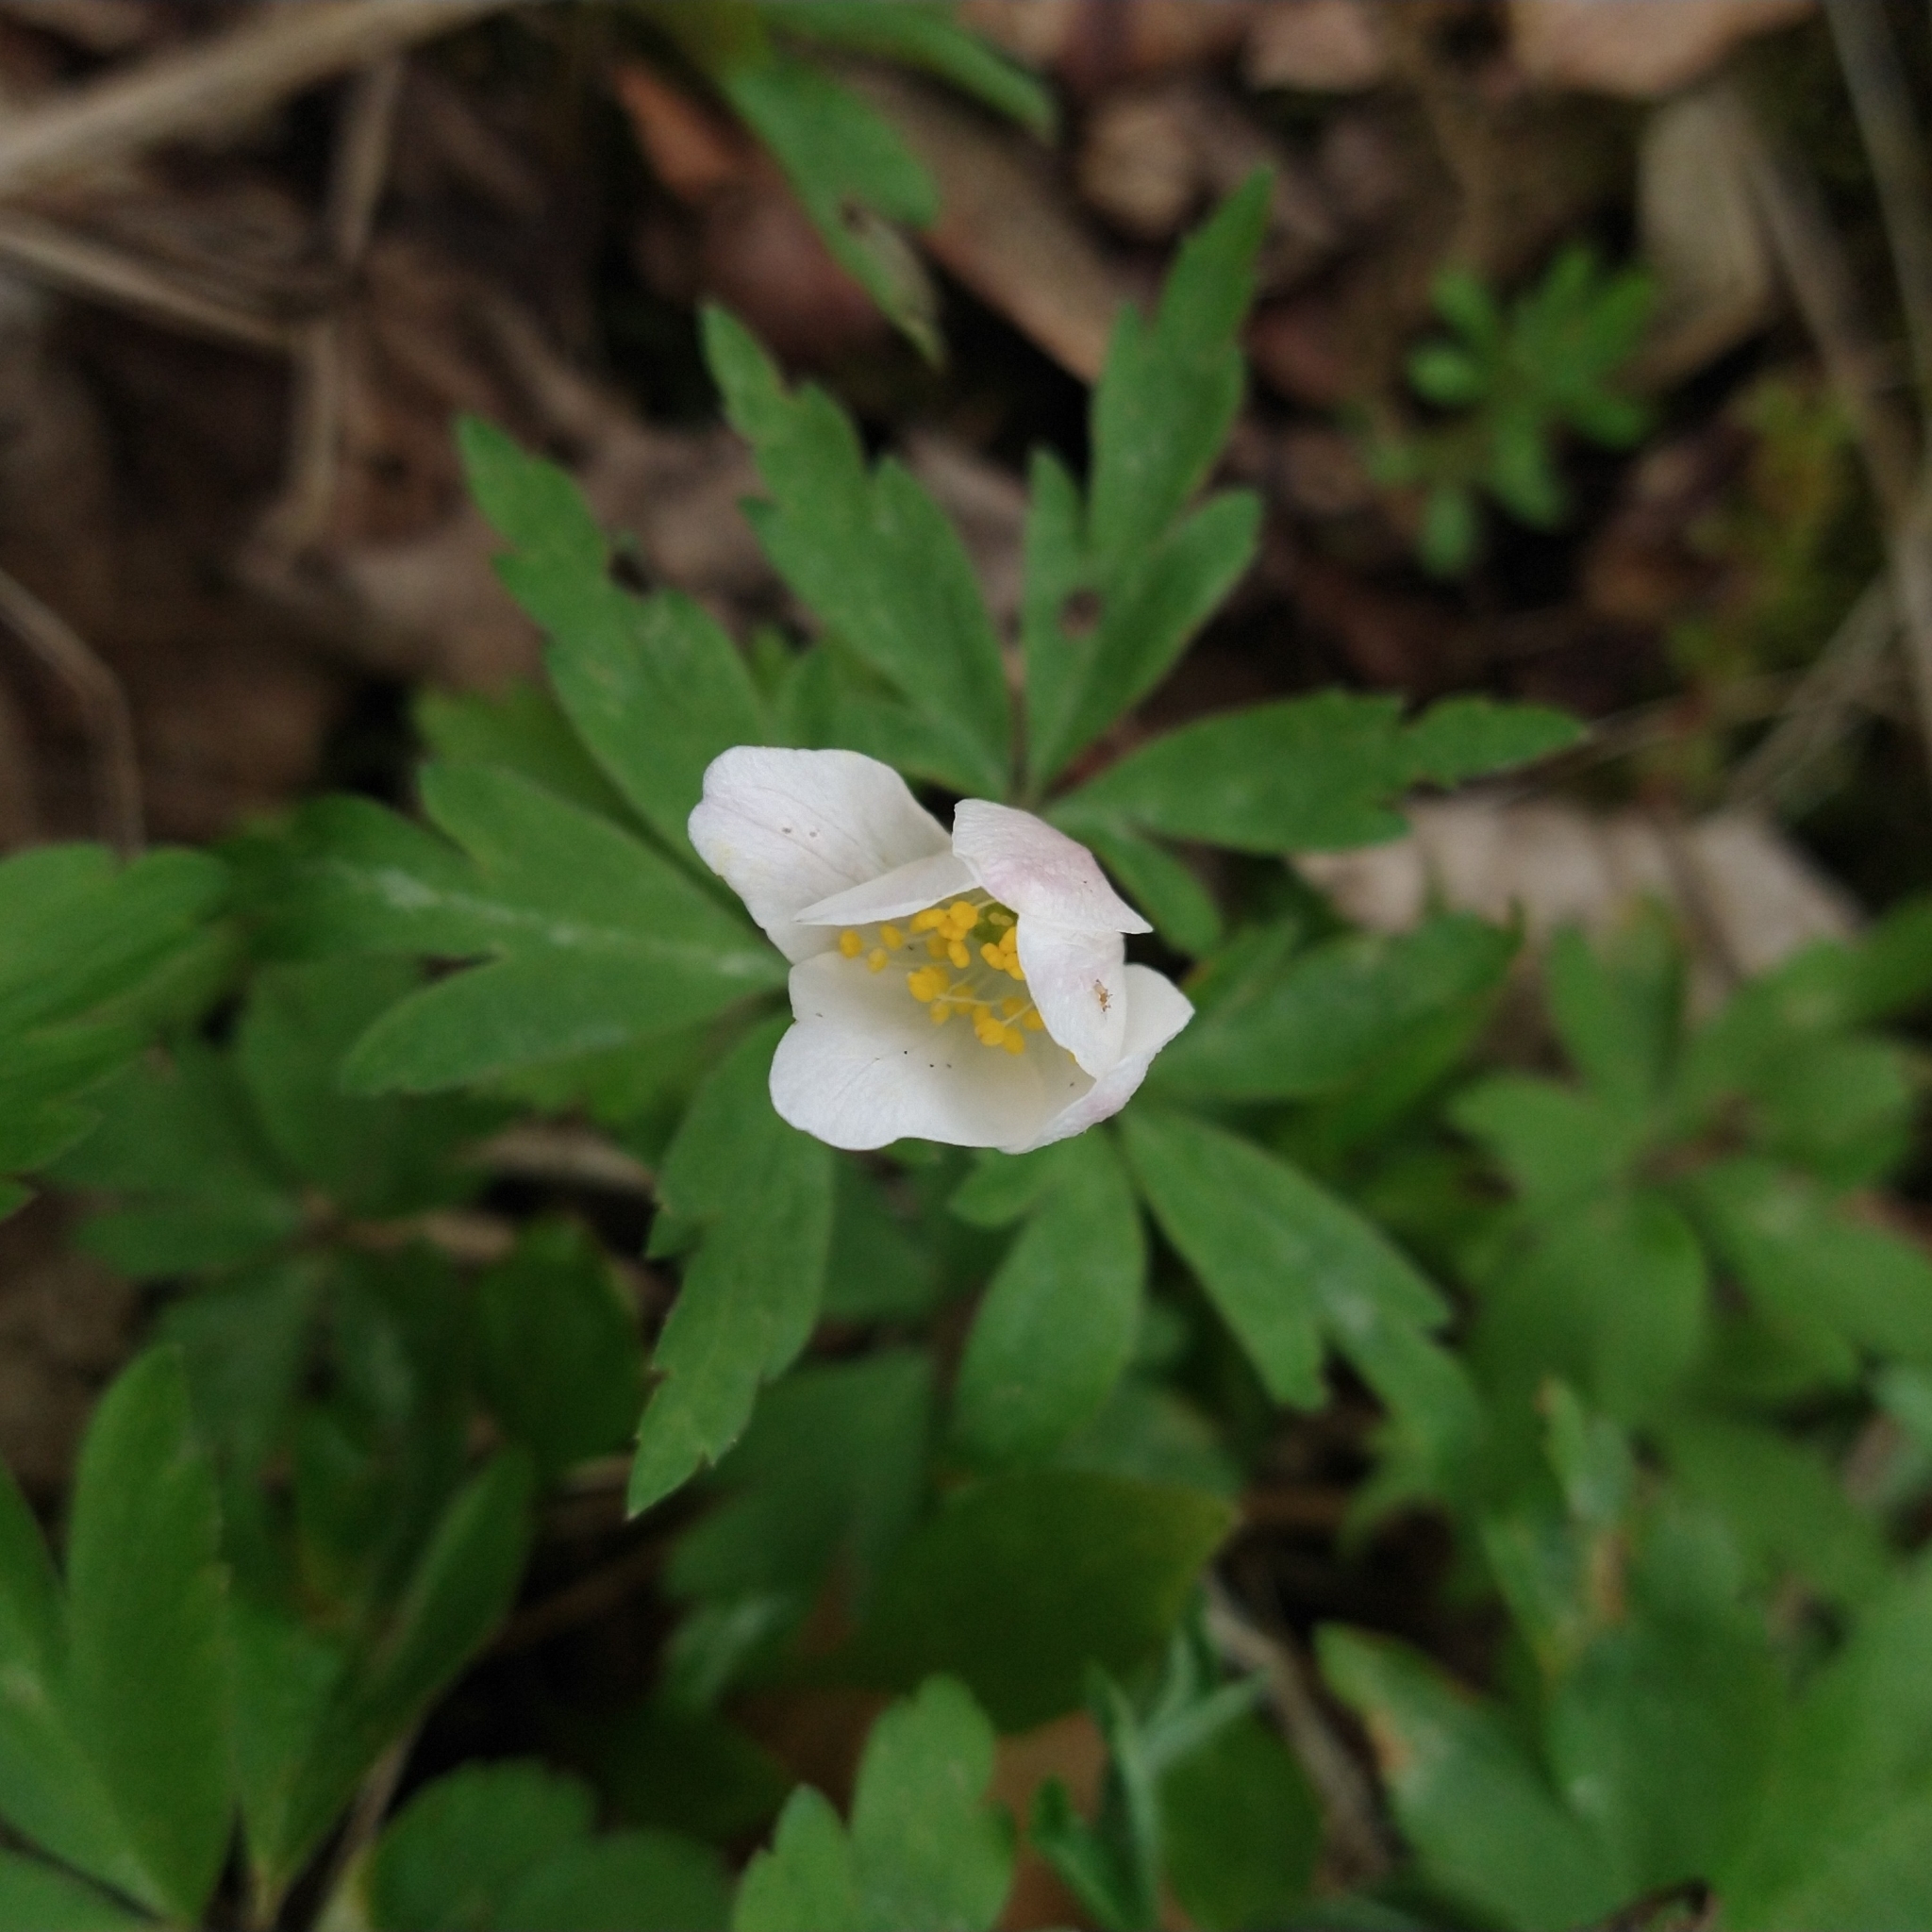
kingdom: Plantae
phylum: Tracheophyta
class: Magnoliopsida
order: Ranunculales
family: Ranunculaceae
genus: Anemone
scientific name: Anemone nemorosa
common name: Wood anemone
